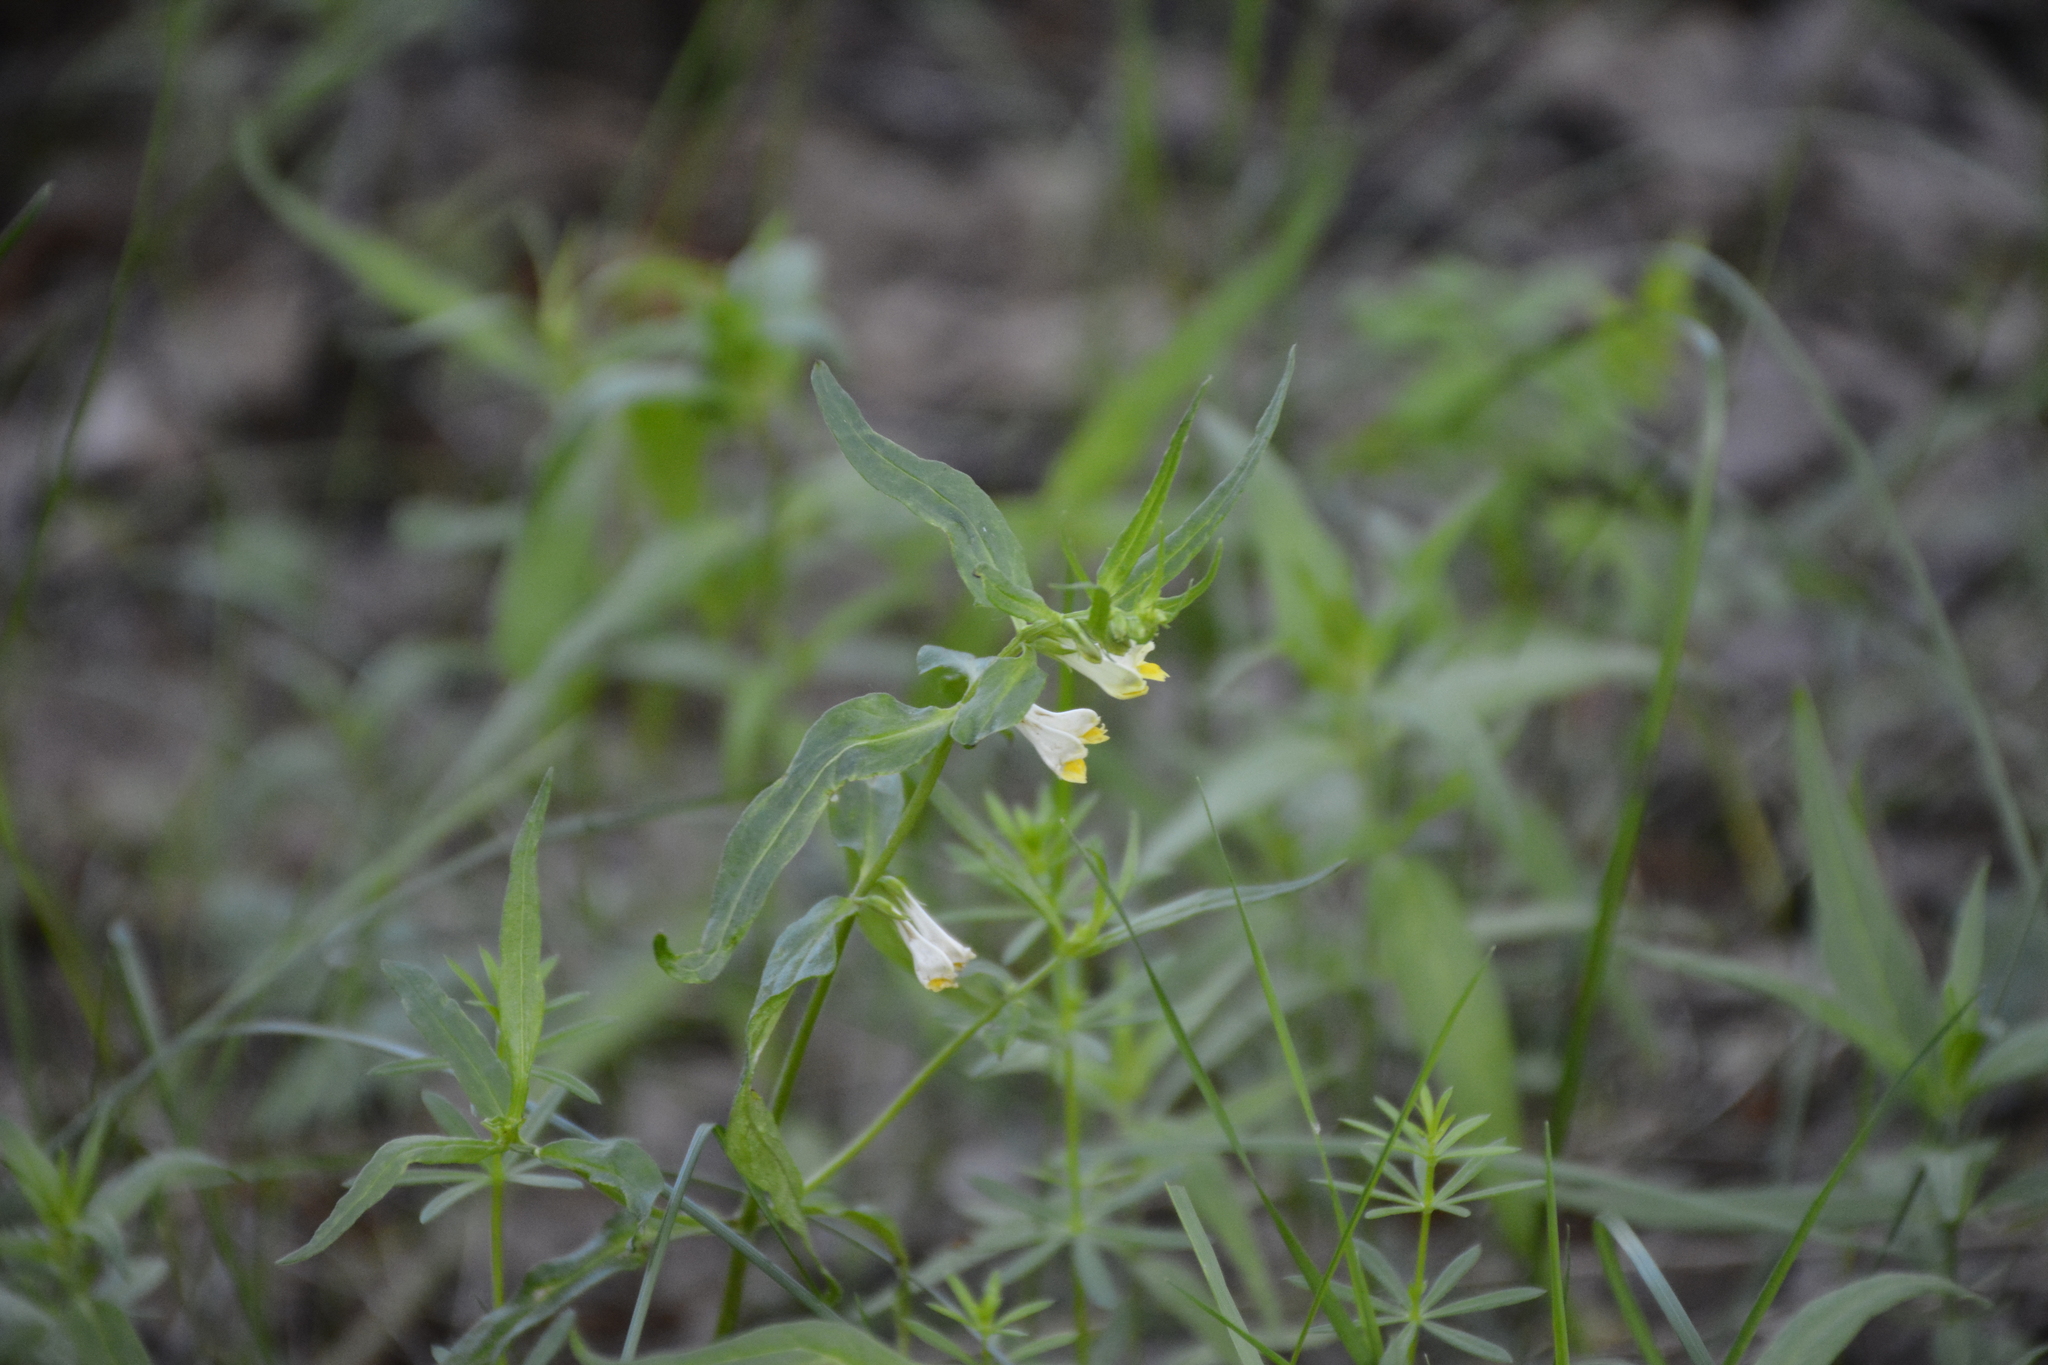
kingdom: Plantae
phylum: Tracheophyta
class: Magnoliopsida
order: Lamiales
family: Orobanchaceae
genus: Melampyrum
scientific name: Melampyrum pratense
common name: Common cow-wheat
